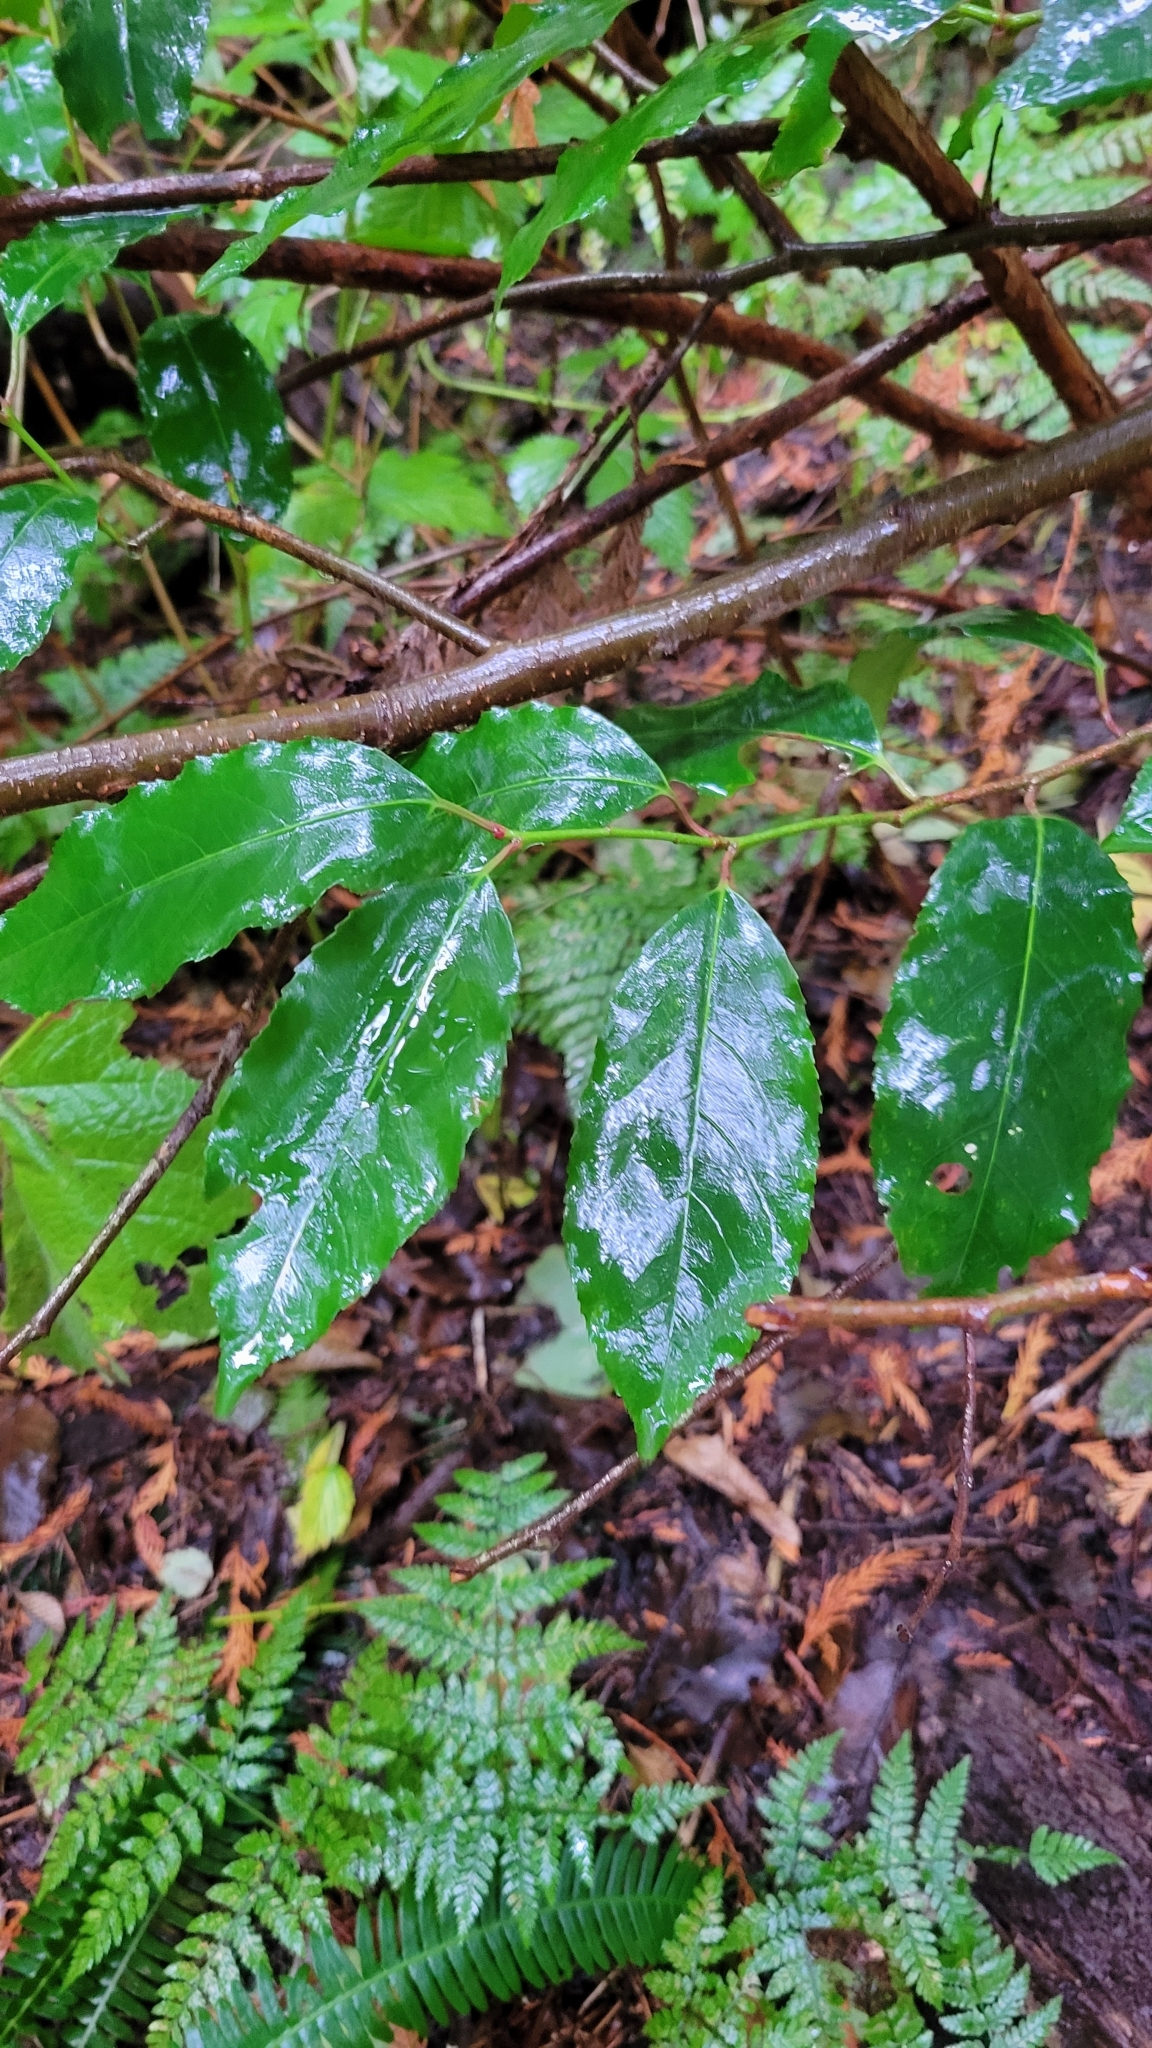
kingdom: Plantae
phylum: Tracheophyta
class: Magnoliopsida
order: Rosales
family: Rosaceae
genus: Prunus
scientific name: Prunus lusitanica
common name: Portugal laurel
